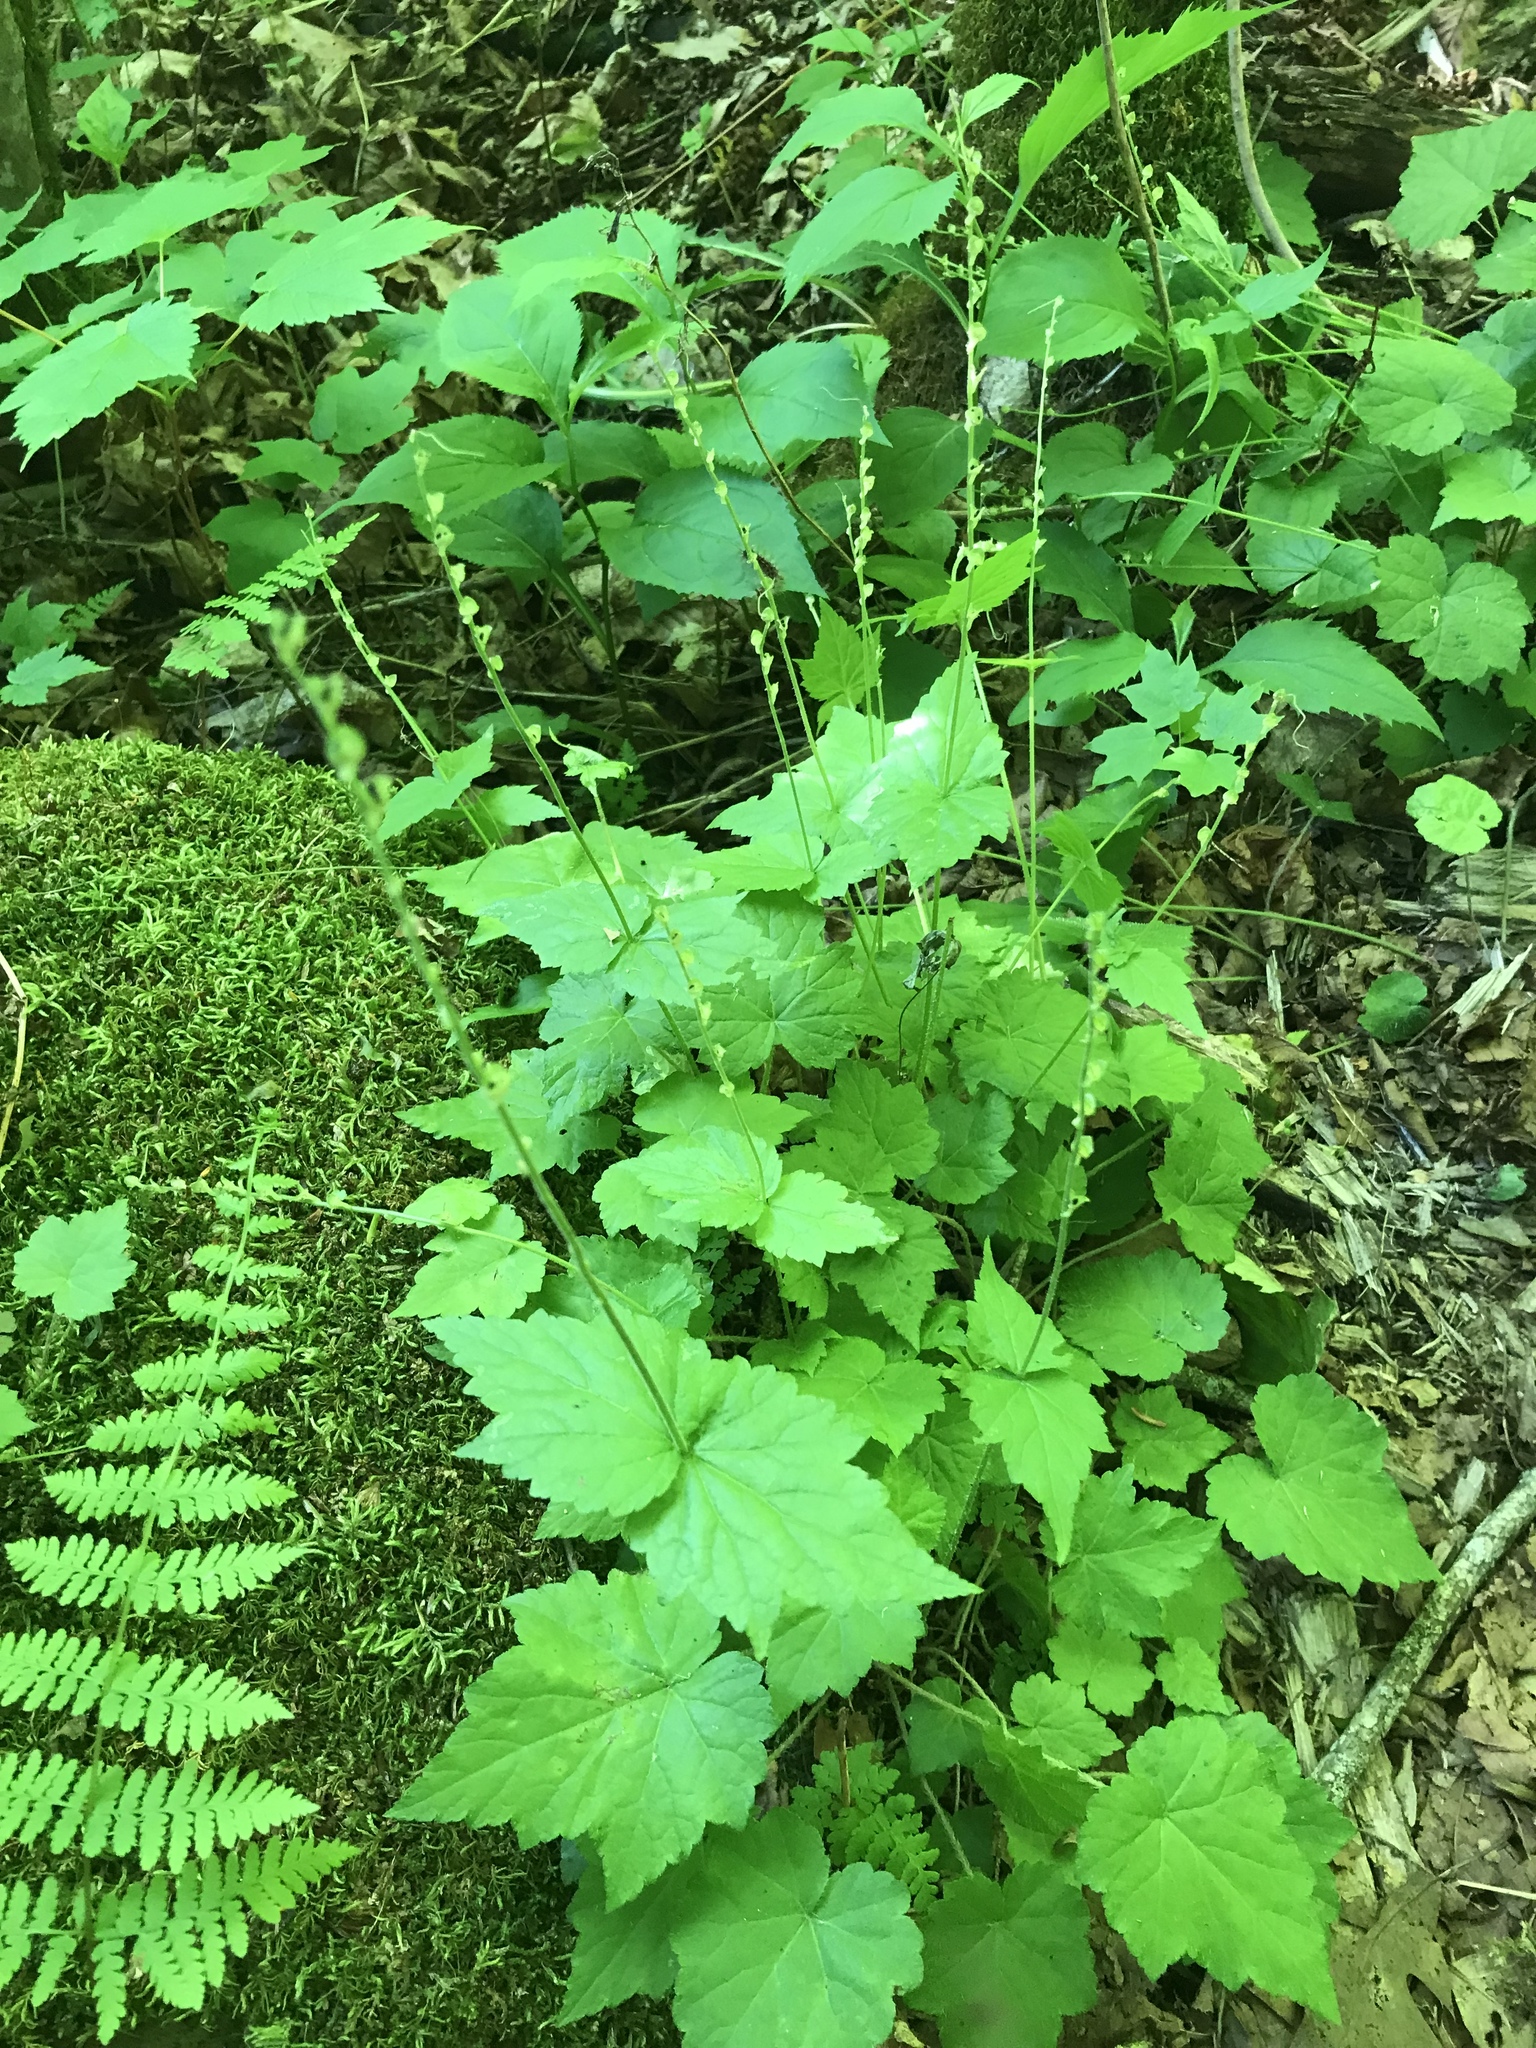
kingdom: Plantae
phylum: Tracheophyta
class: Magnoliopsida
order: Saxifragales
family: Saxifragaceae
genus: Mitella
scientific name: Mitella diphylla
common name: Coolwort
